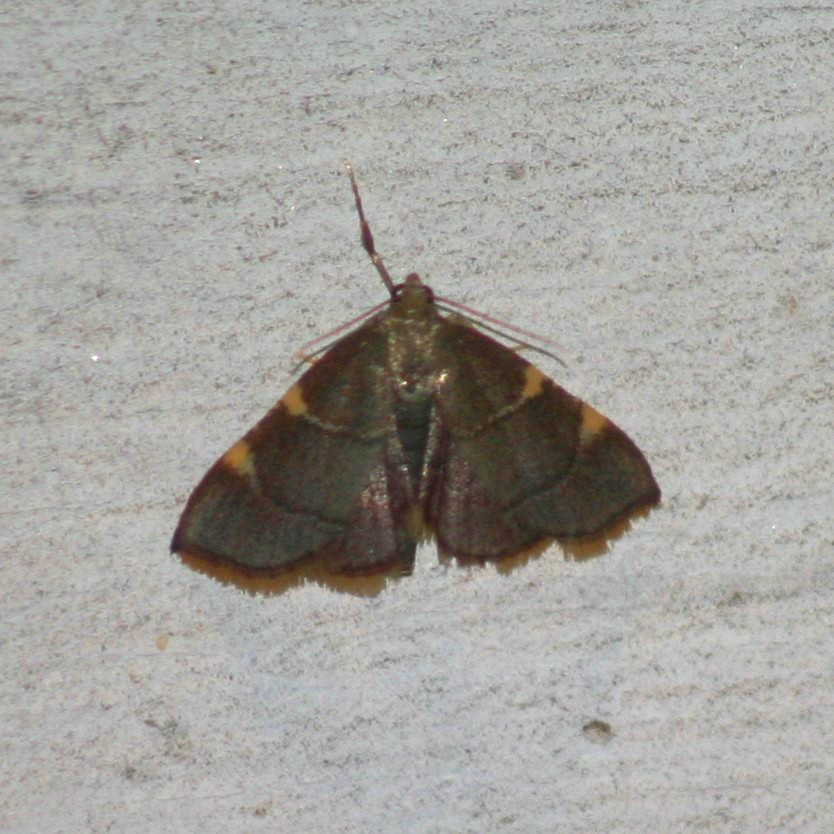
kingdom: Animalia
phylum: Arthropoda
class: Insecta
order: Lepidoptera
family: Pyralidae
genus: Hypsopygia
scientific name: Hypsopygia olinalis
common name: Yellow-fringed dolichomia moth
